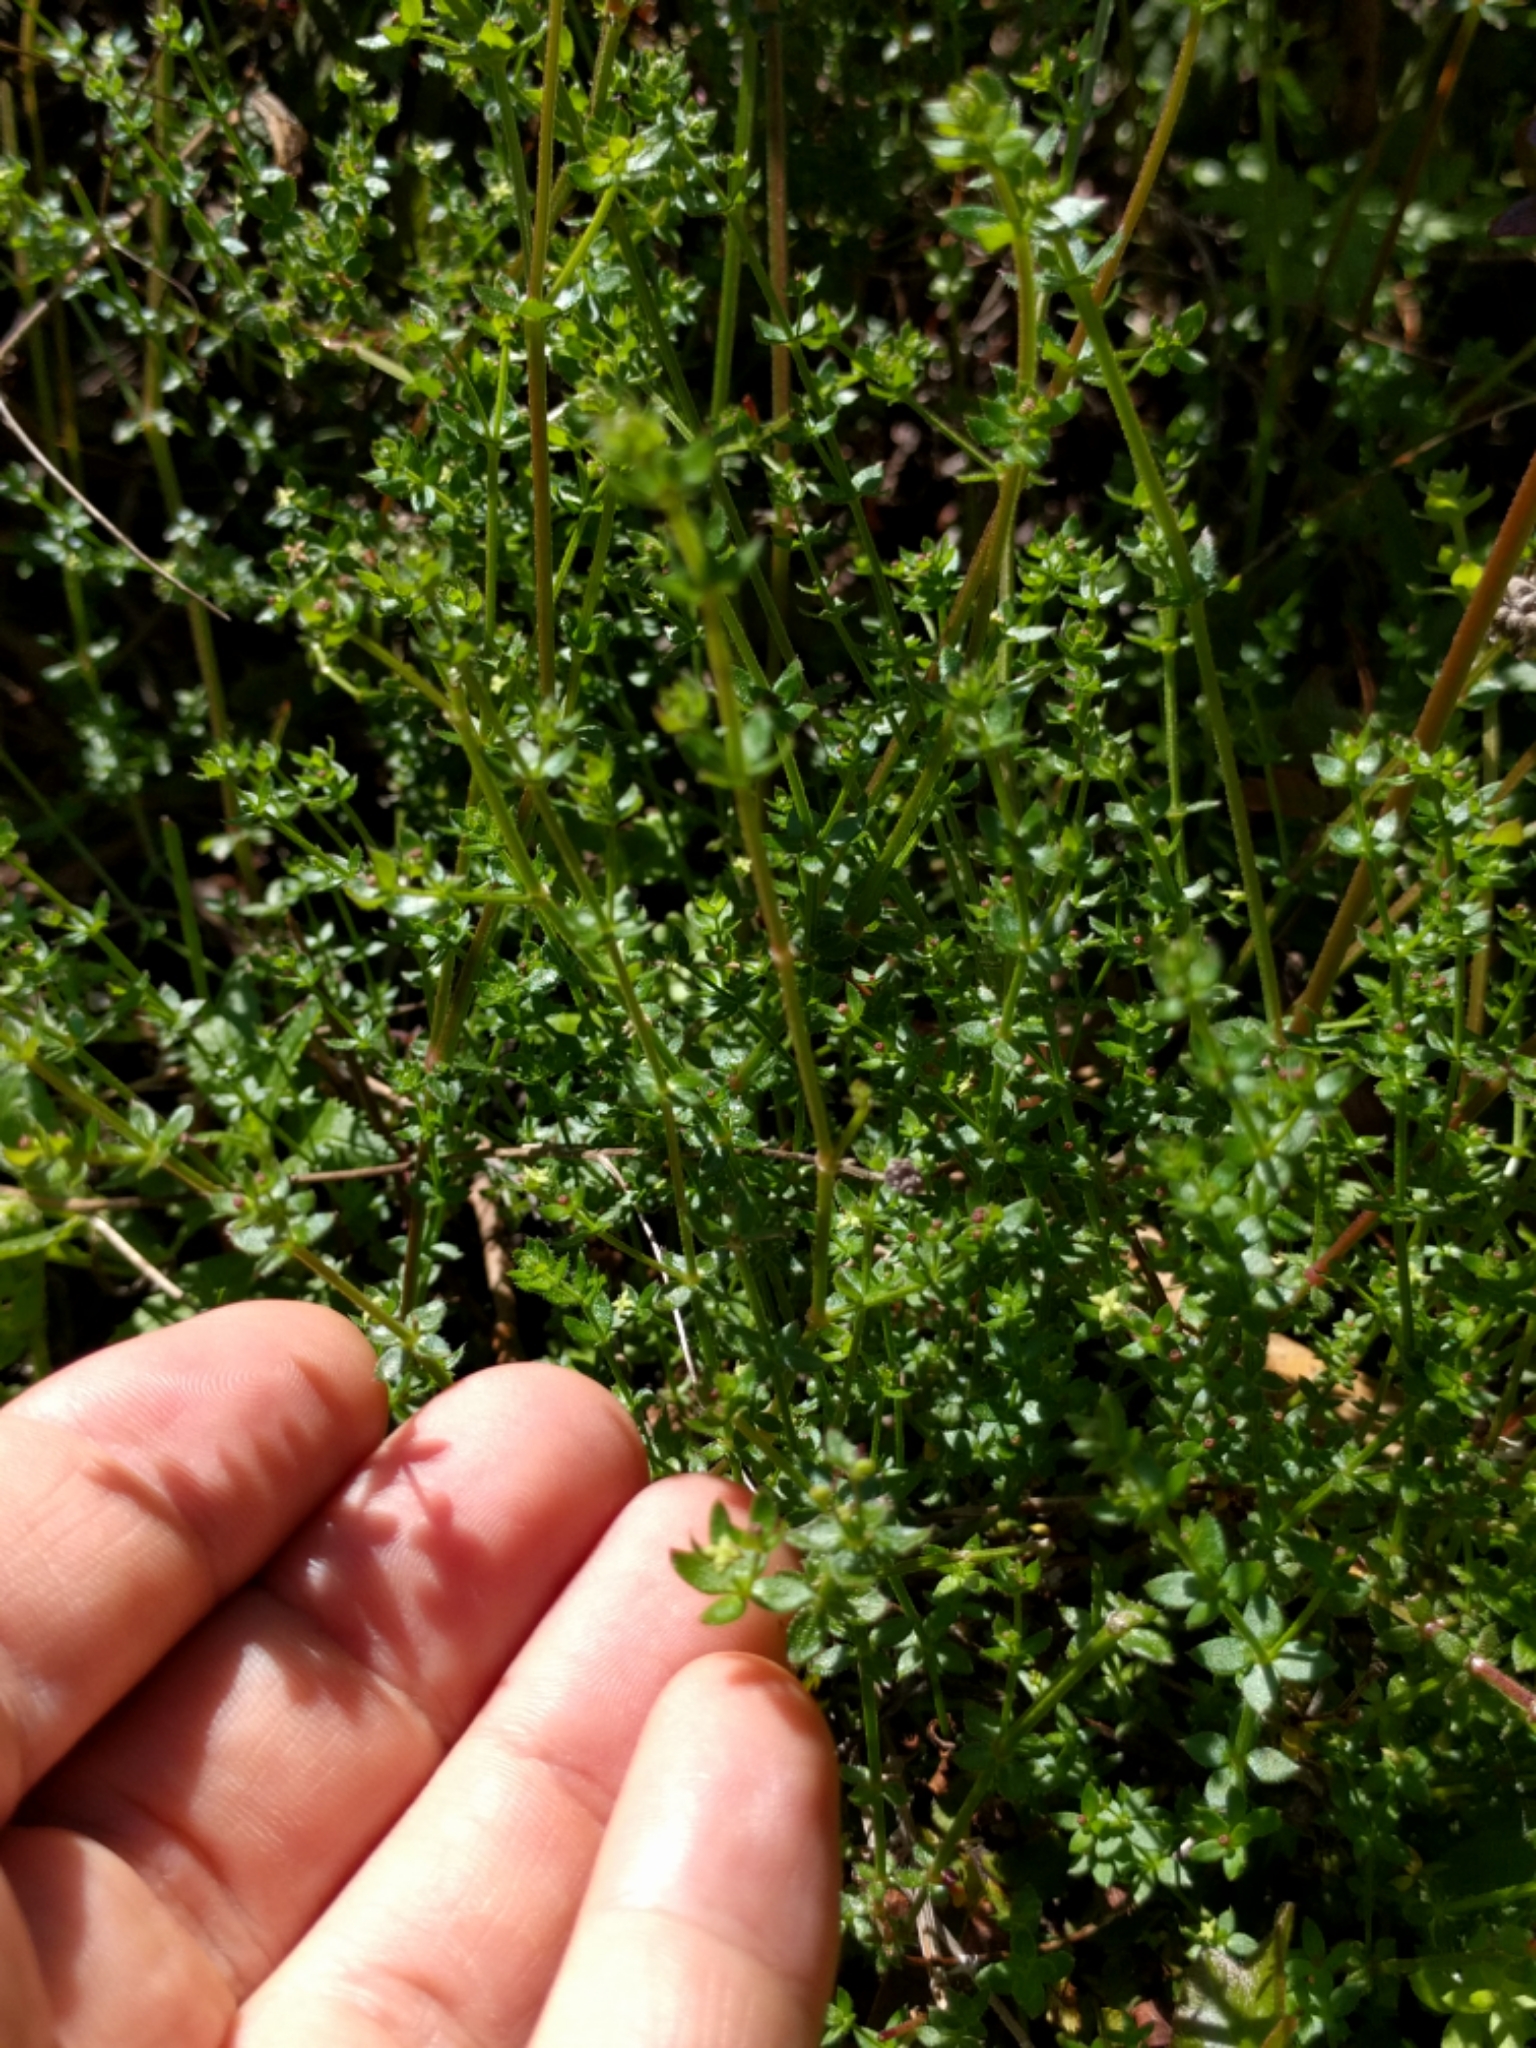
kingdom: Plantae
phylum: Tracheophyta
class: Magnoliopsida
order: Gentianales
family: Rubiaceae
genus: Galium
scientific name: Galium porrigens
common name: Climbing bedstraw
